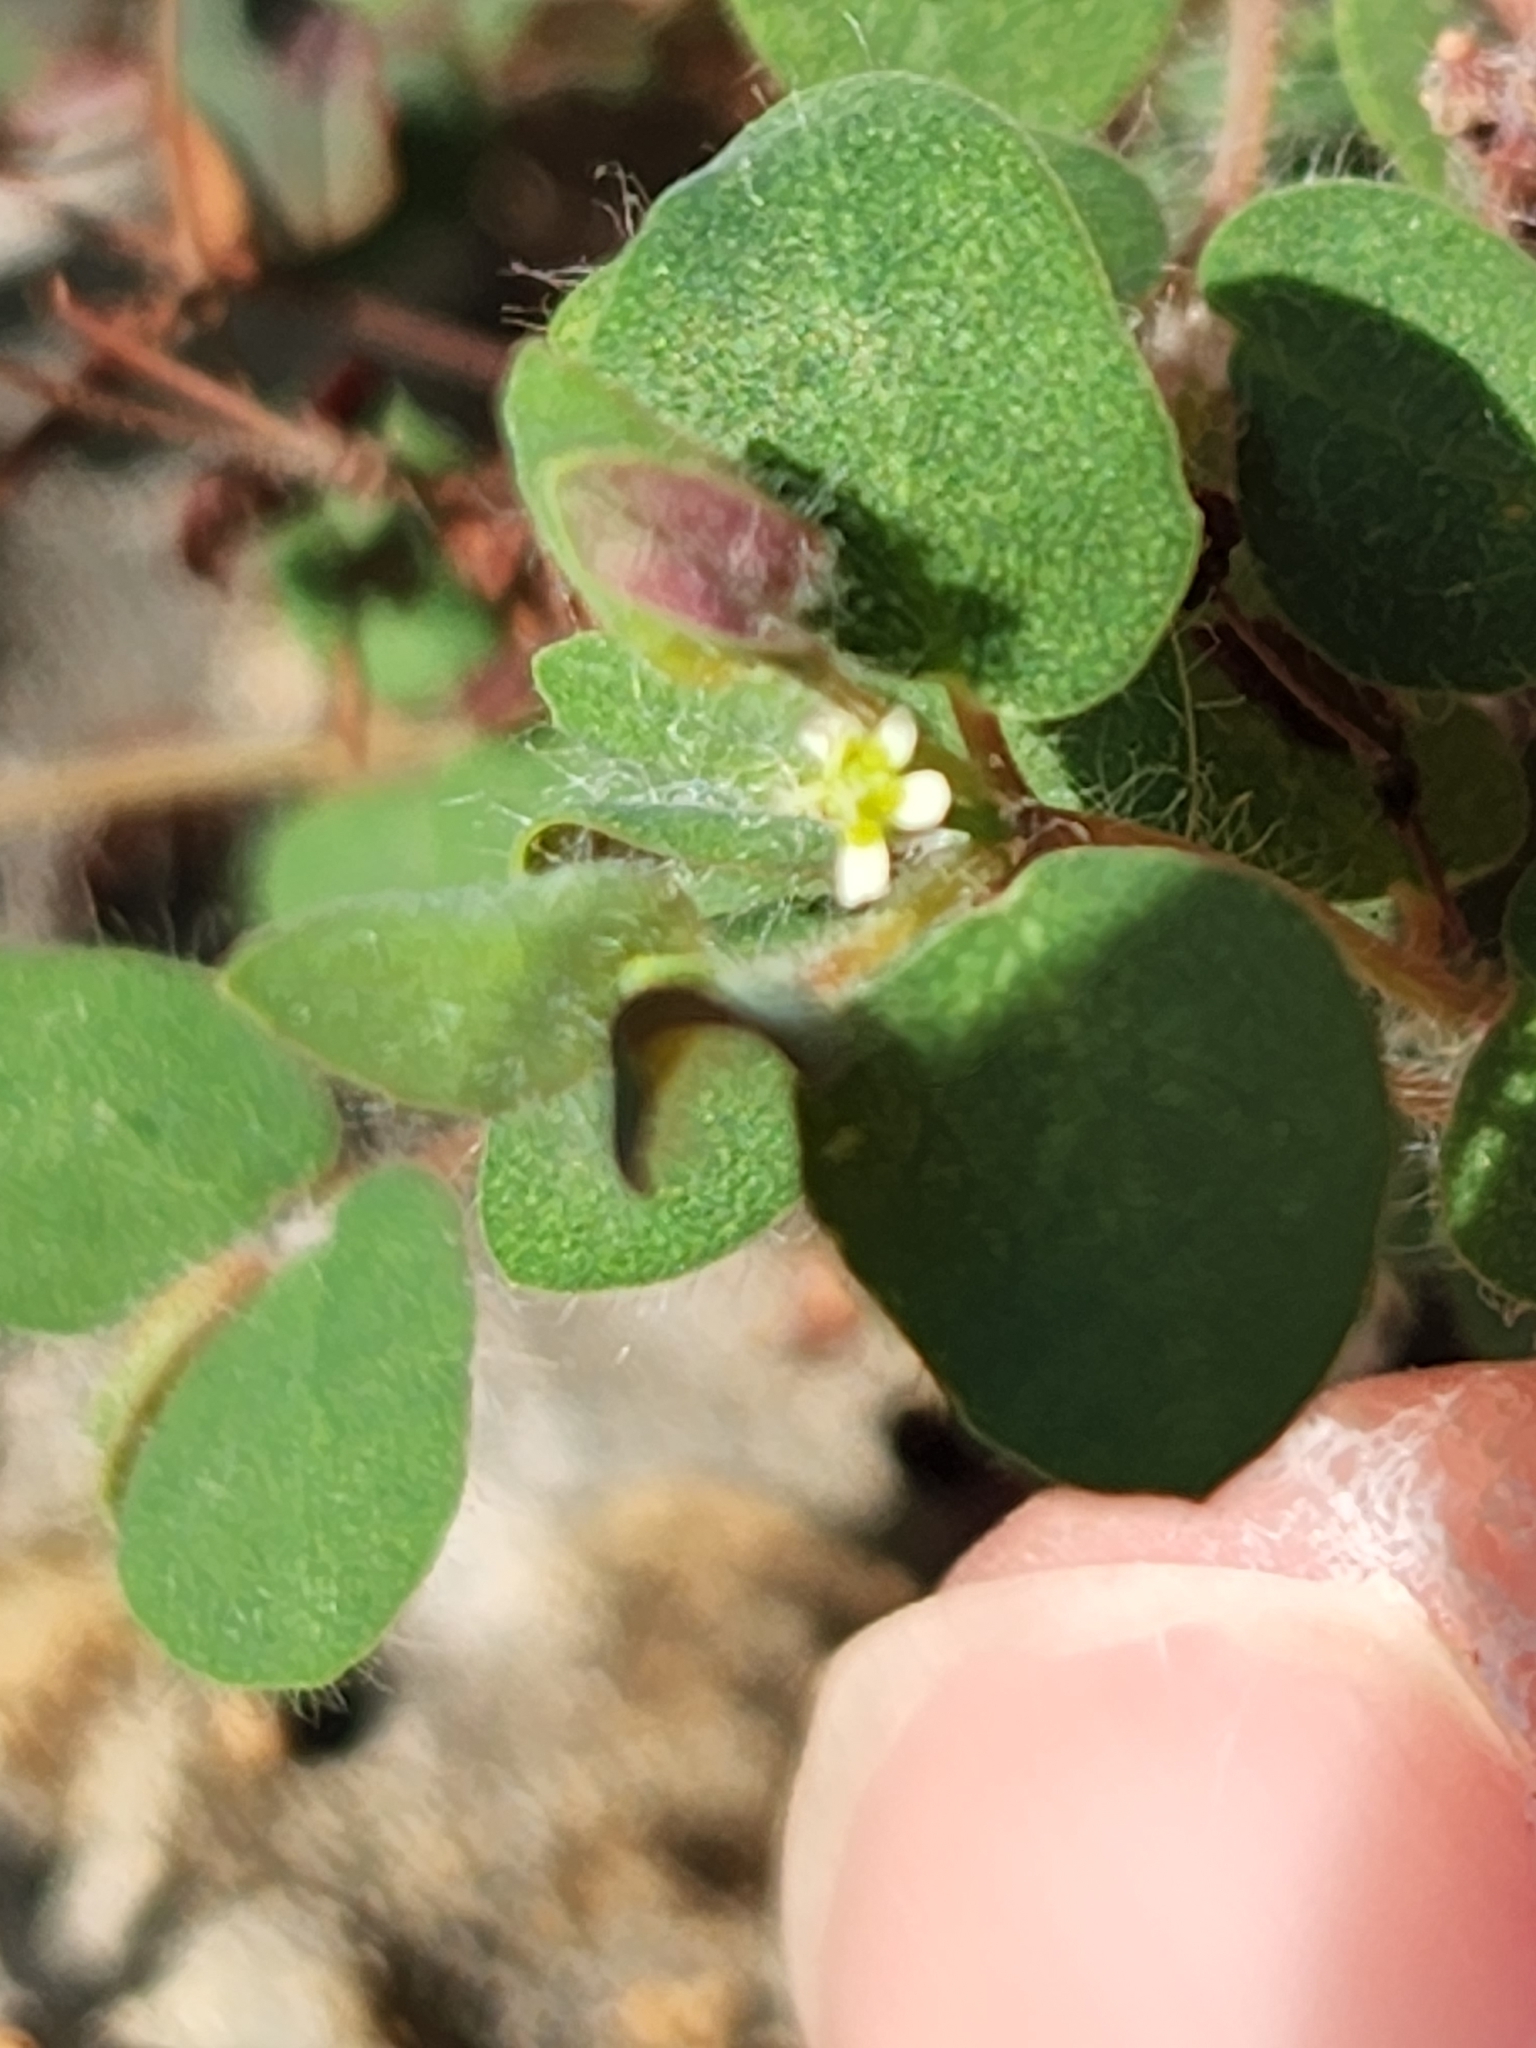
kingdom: Plantae
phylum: Tracheophyta
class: Magnoliopsida
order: Malpighiales
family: Euphorbiaceae
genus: Euphorbia
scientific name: Euphorbia villifera
